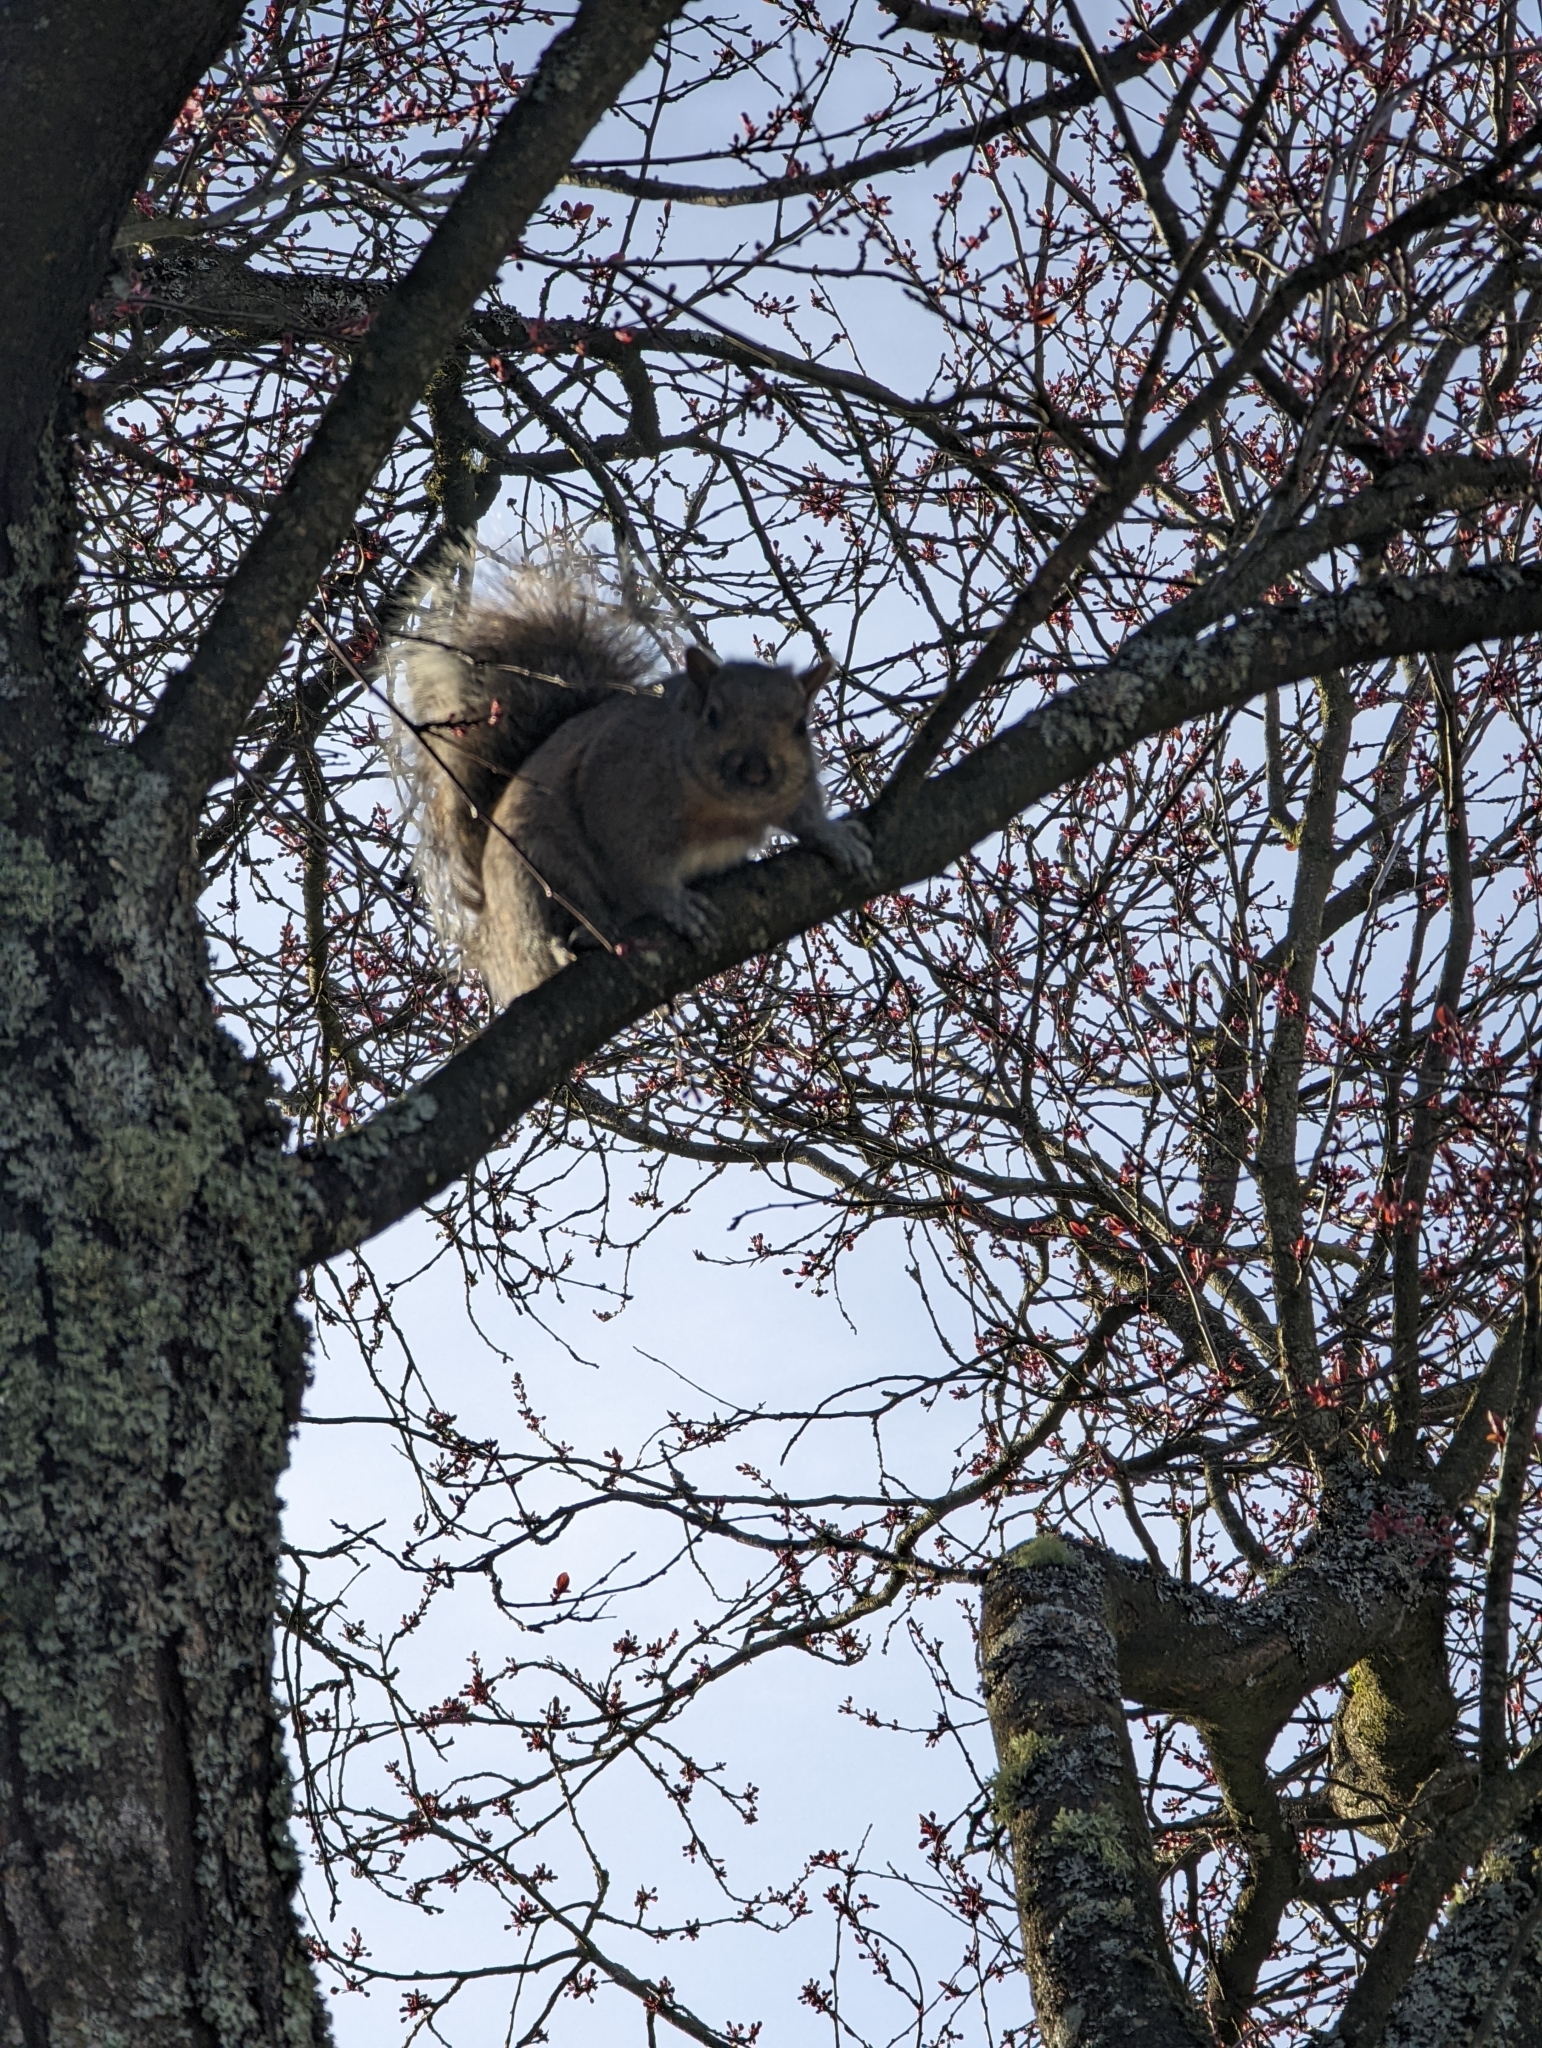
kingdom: Animalia
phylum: Chordata
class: Mammalia
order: Rodentia
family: Sciuridae
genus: Sciurus
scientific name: Sciurus carolinensis
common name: Eastern gray squirrel
